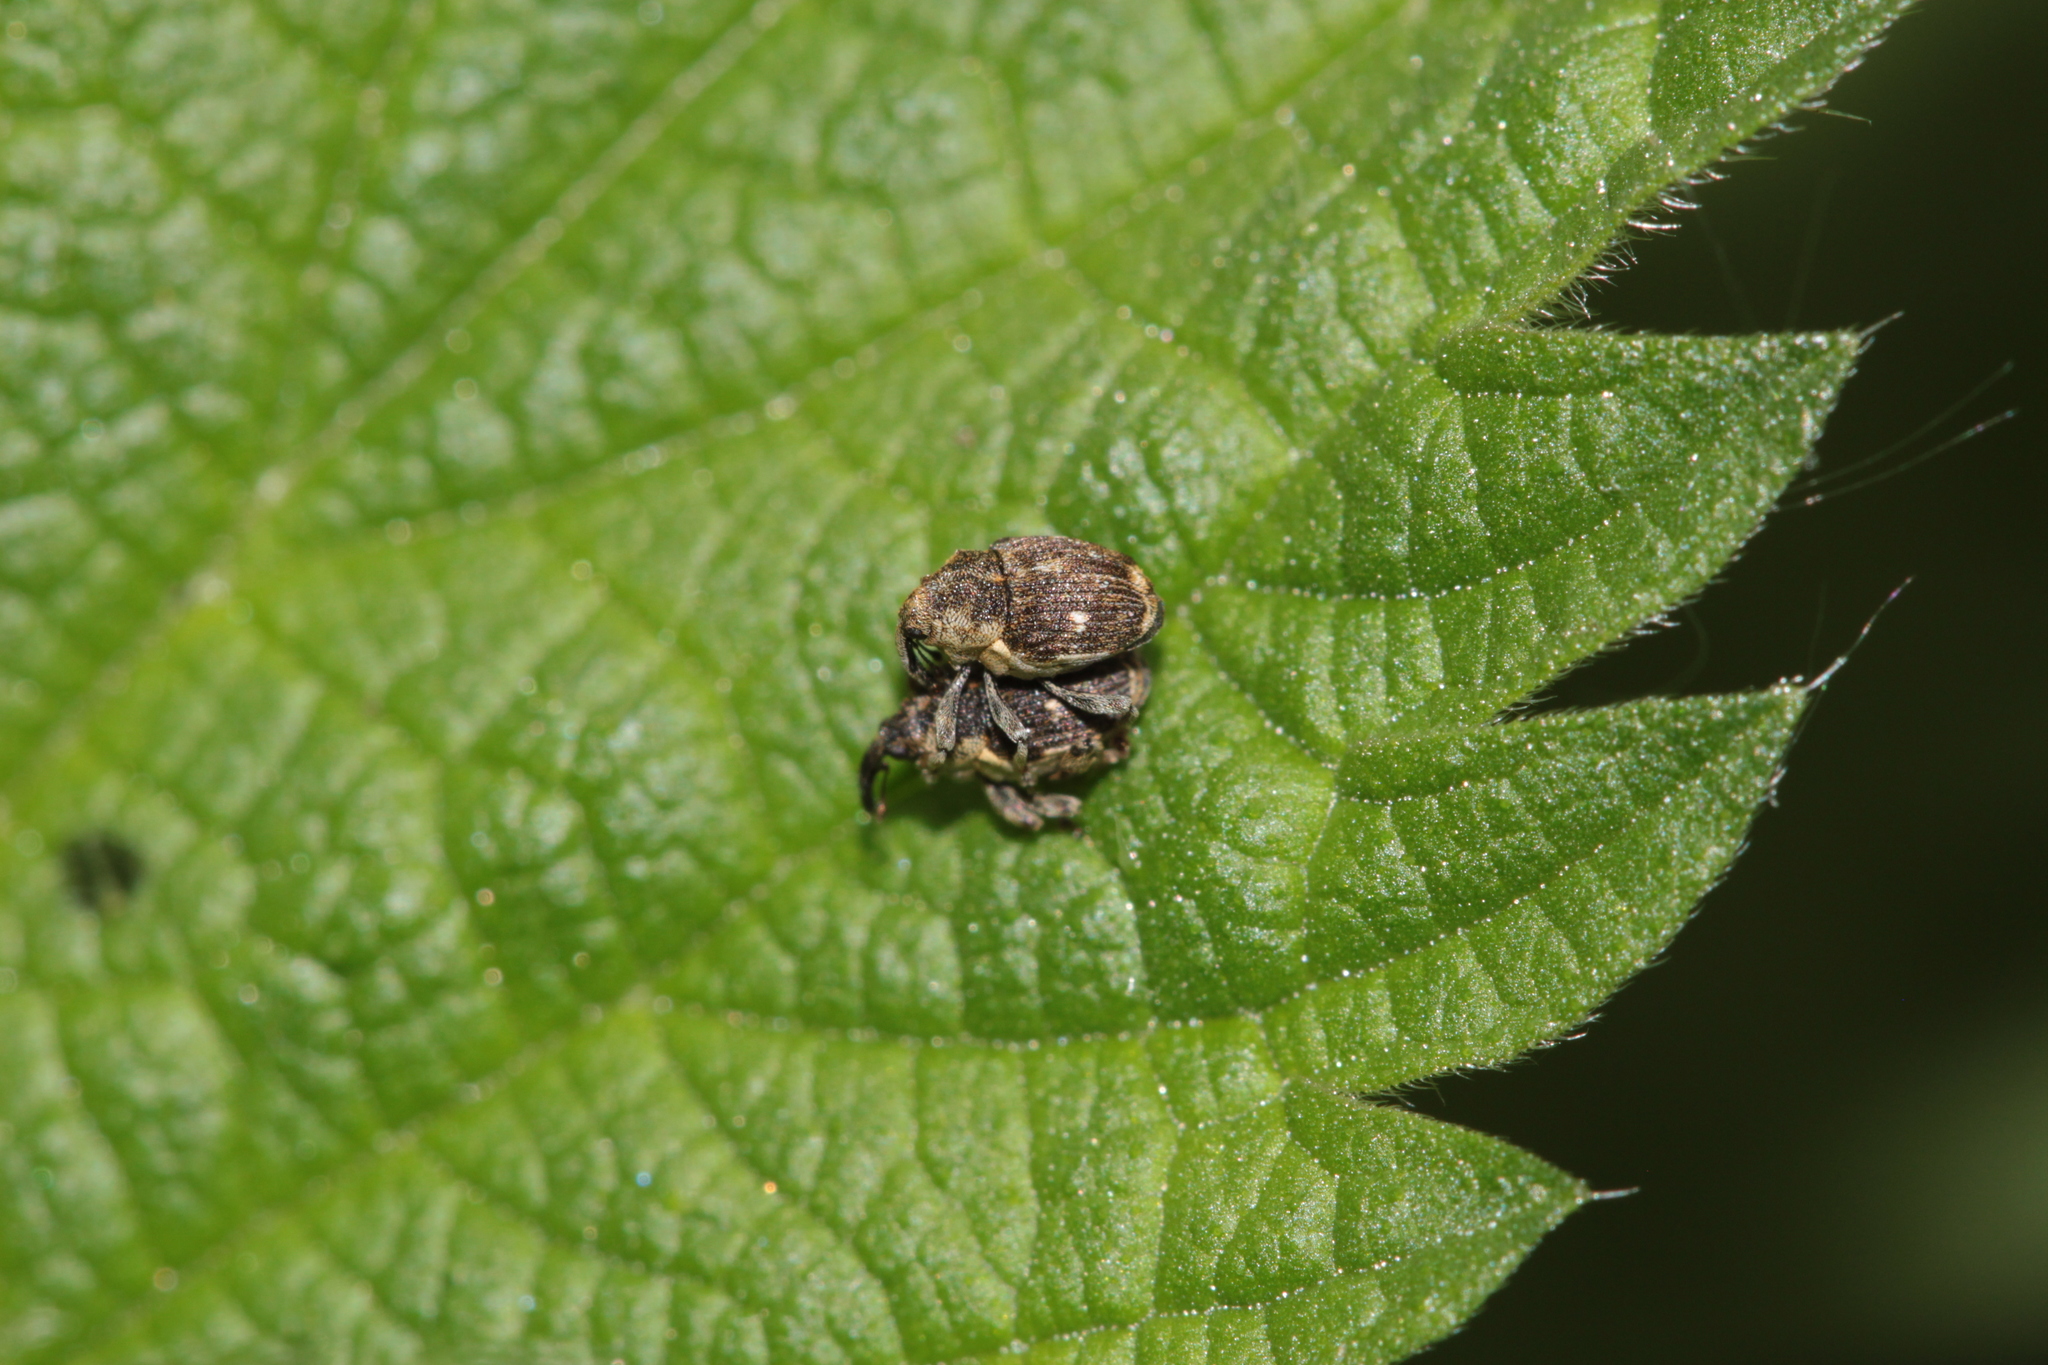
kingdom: Animalia
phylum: Arthropoda
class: Insecta
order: Coleoptera
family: Curculionidae
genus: Nedyus
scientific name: Nedyus quadrimaculatus
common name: Small nettle weevil
